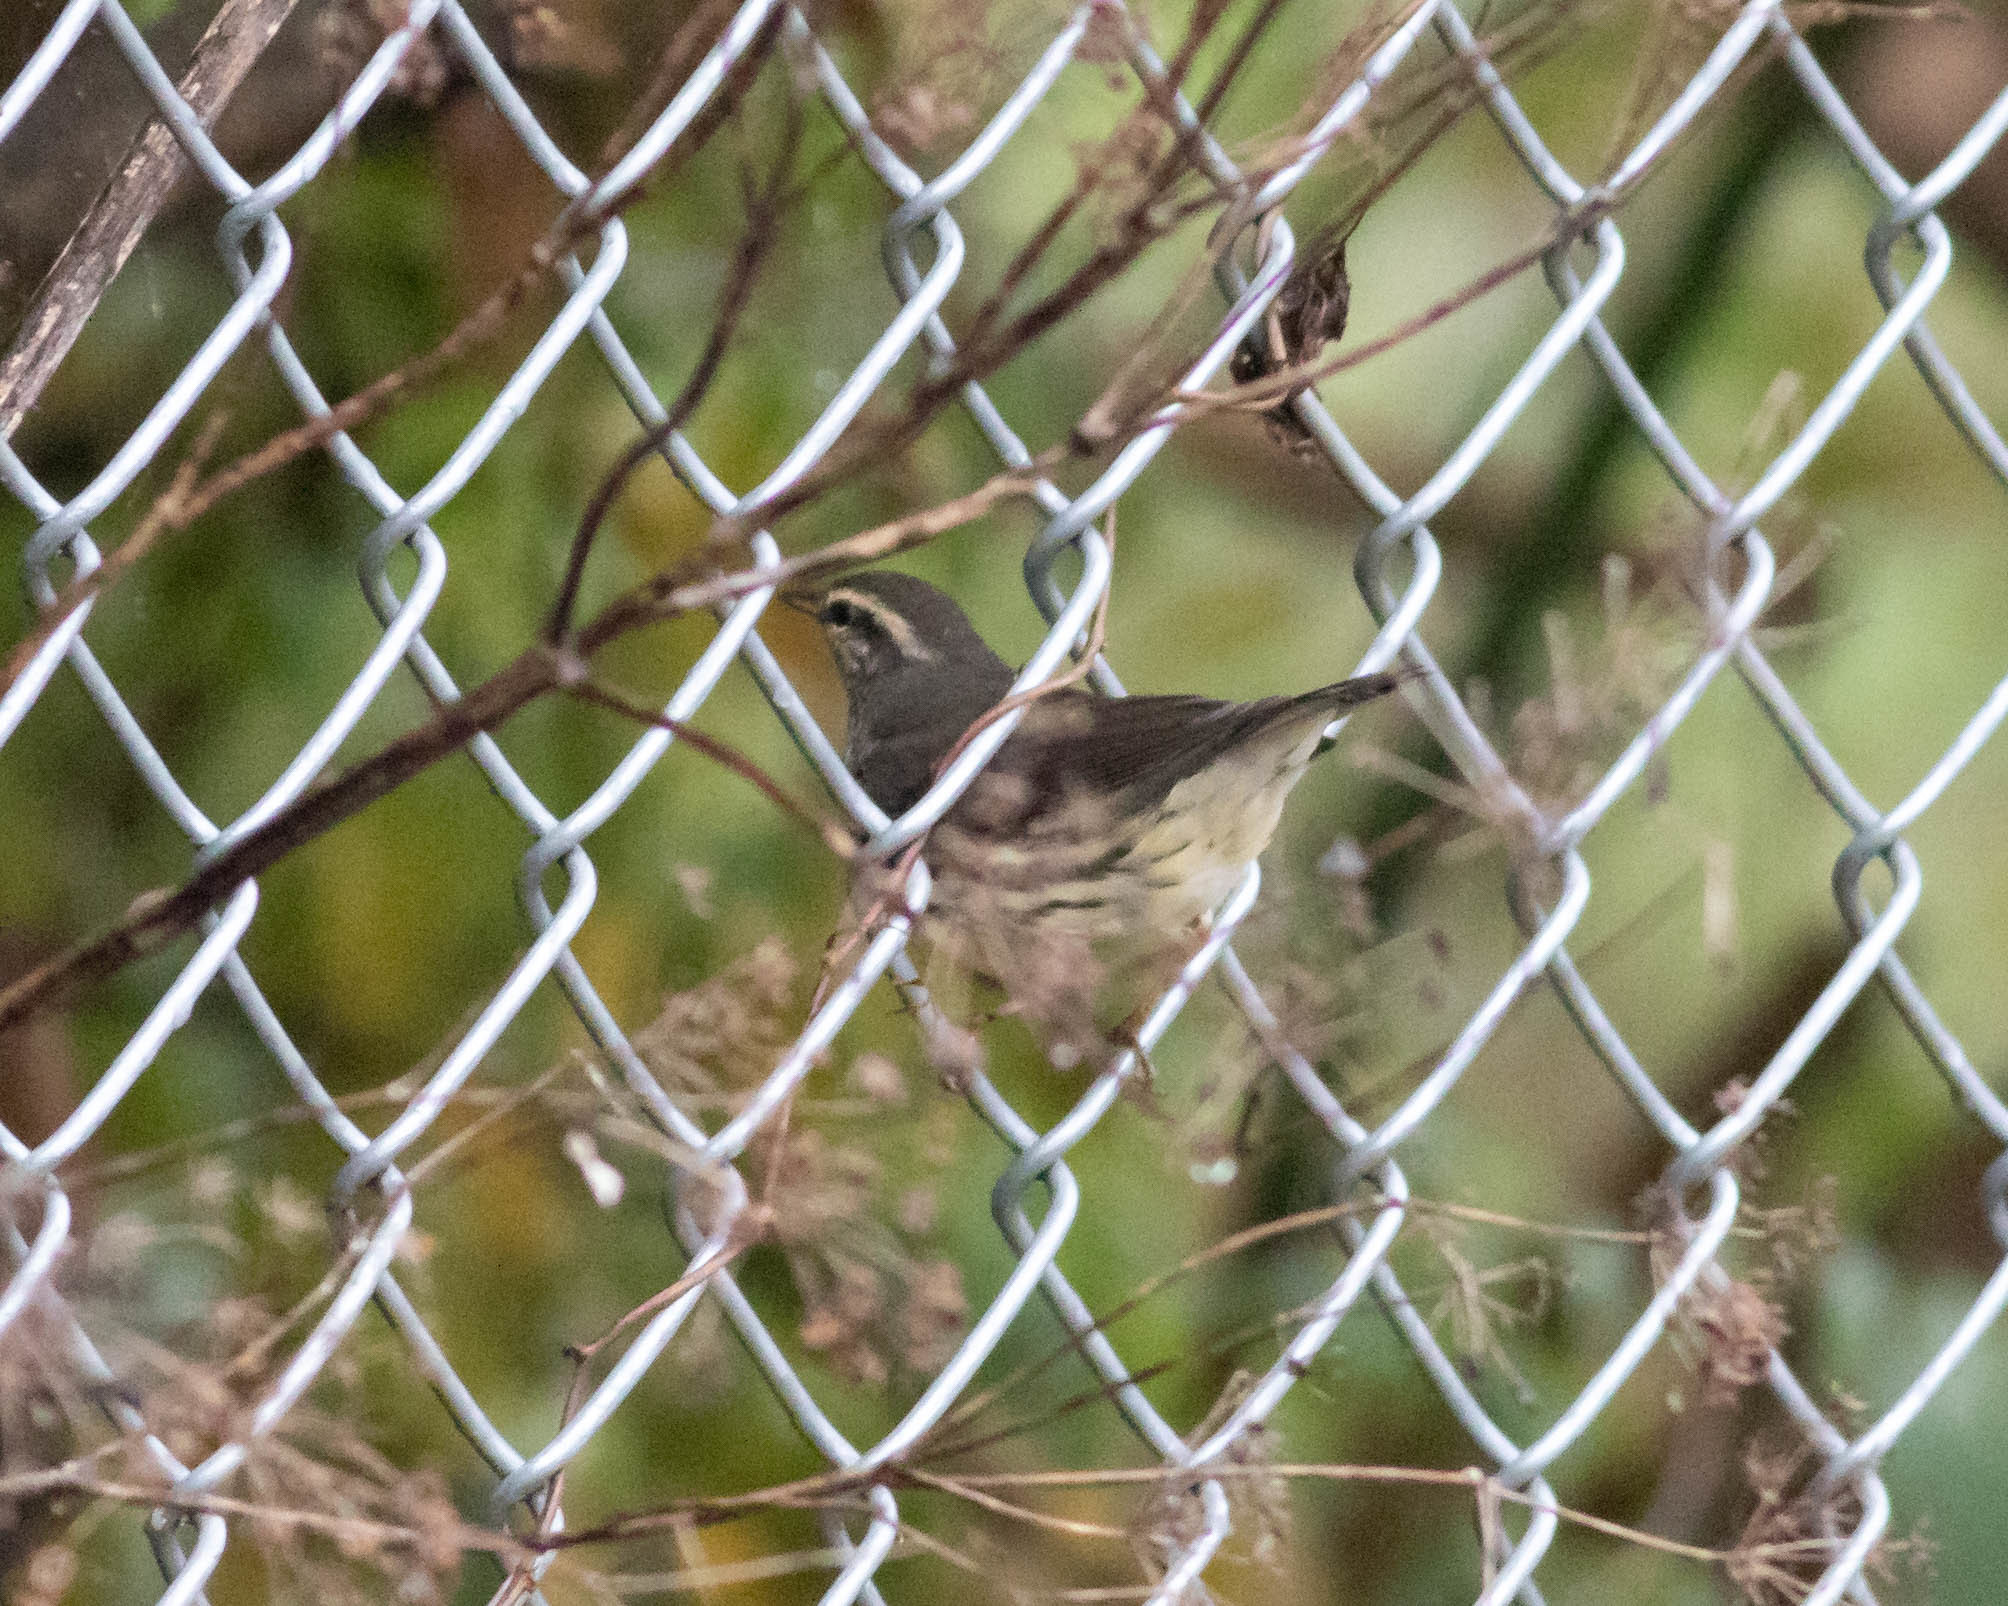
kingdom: Animalia
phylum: Chordata
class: Aves
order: Passeriformes
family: Parulidae
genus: Parkesia
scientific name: Parkesia noveboracensis
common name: Northern waterthrush
